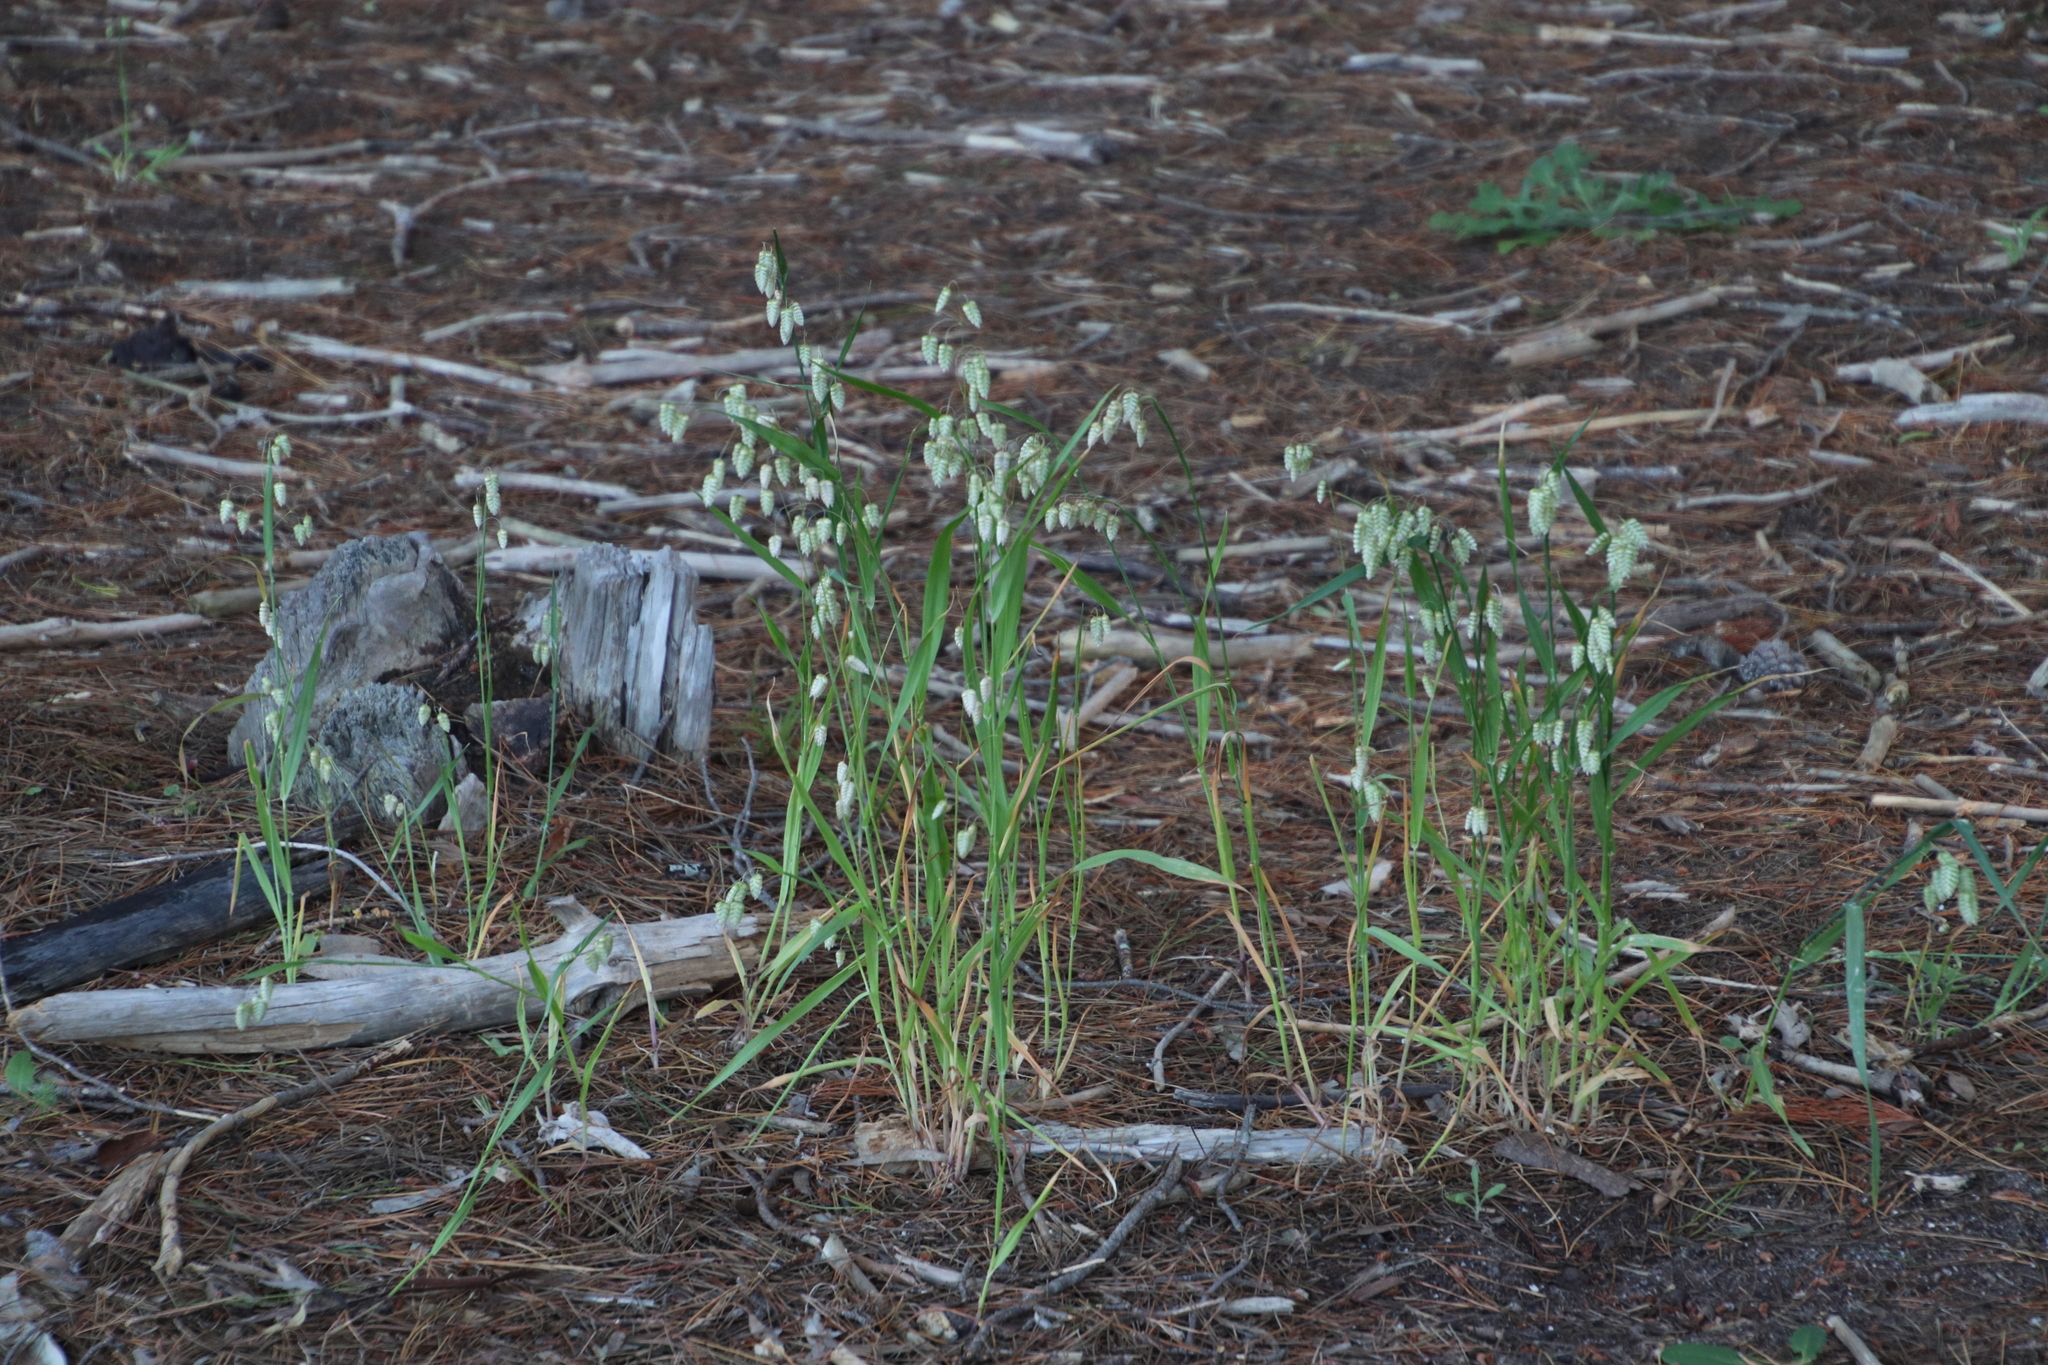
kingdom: Plantae
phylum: Tracheophyta
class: Liliopsida
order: Poales
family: Poaceae
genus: Briza
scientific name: Briza maxima
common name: Big quakinggrass
